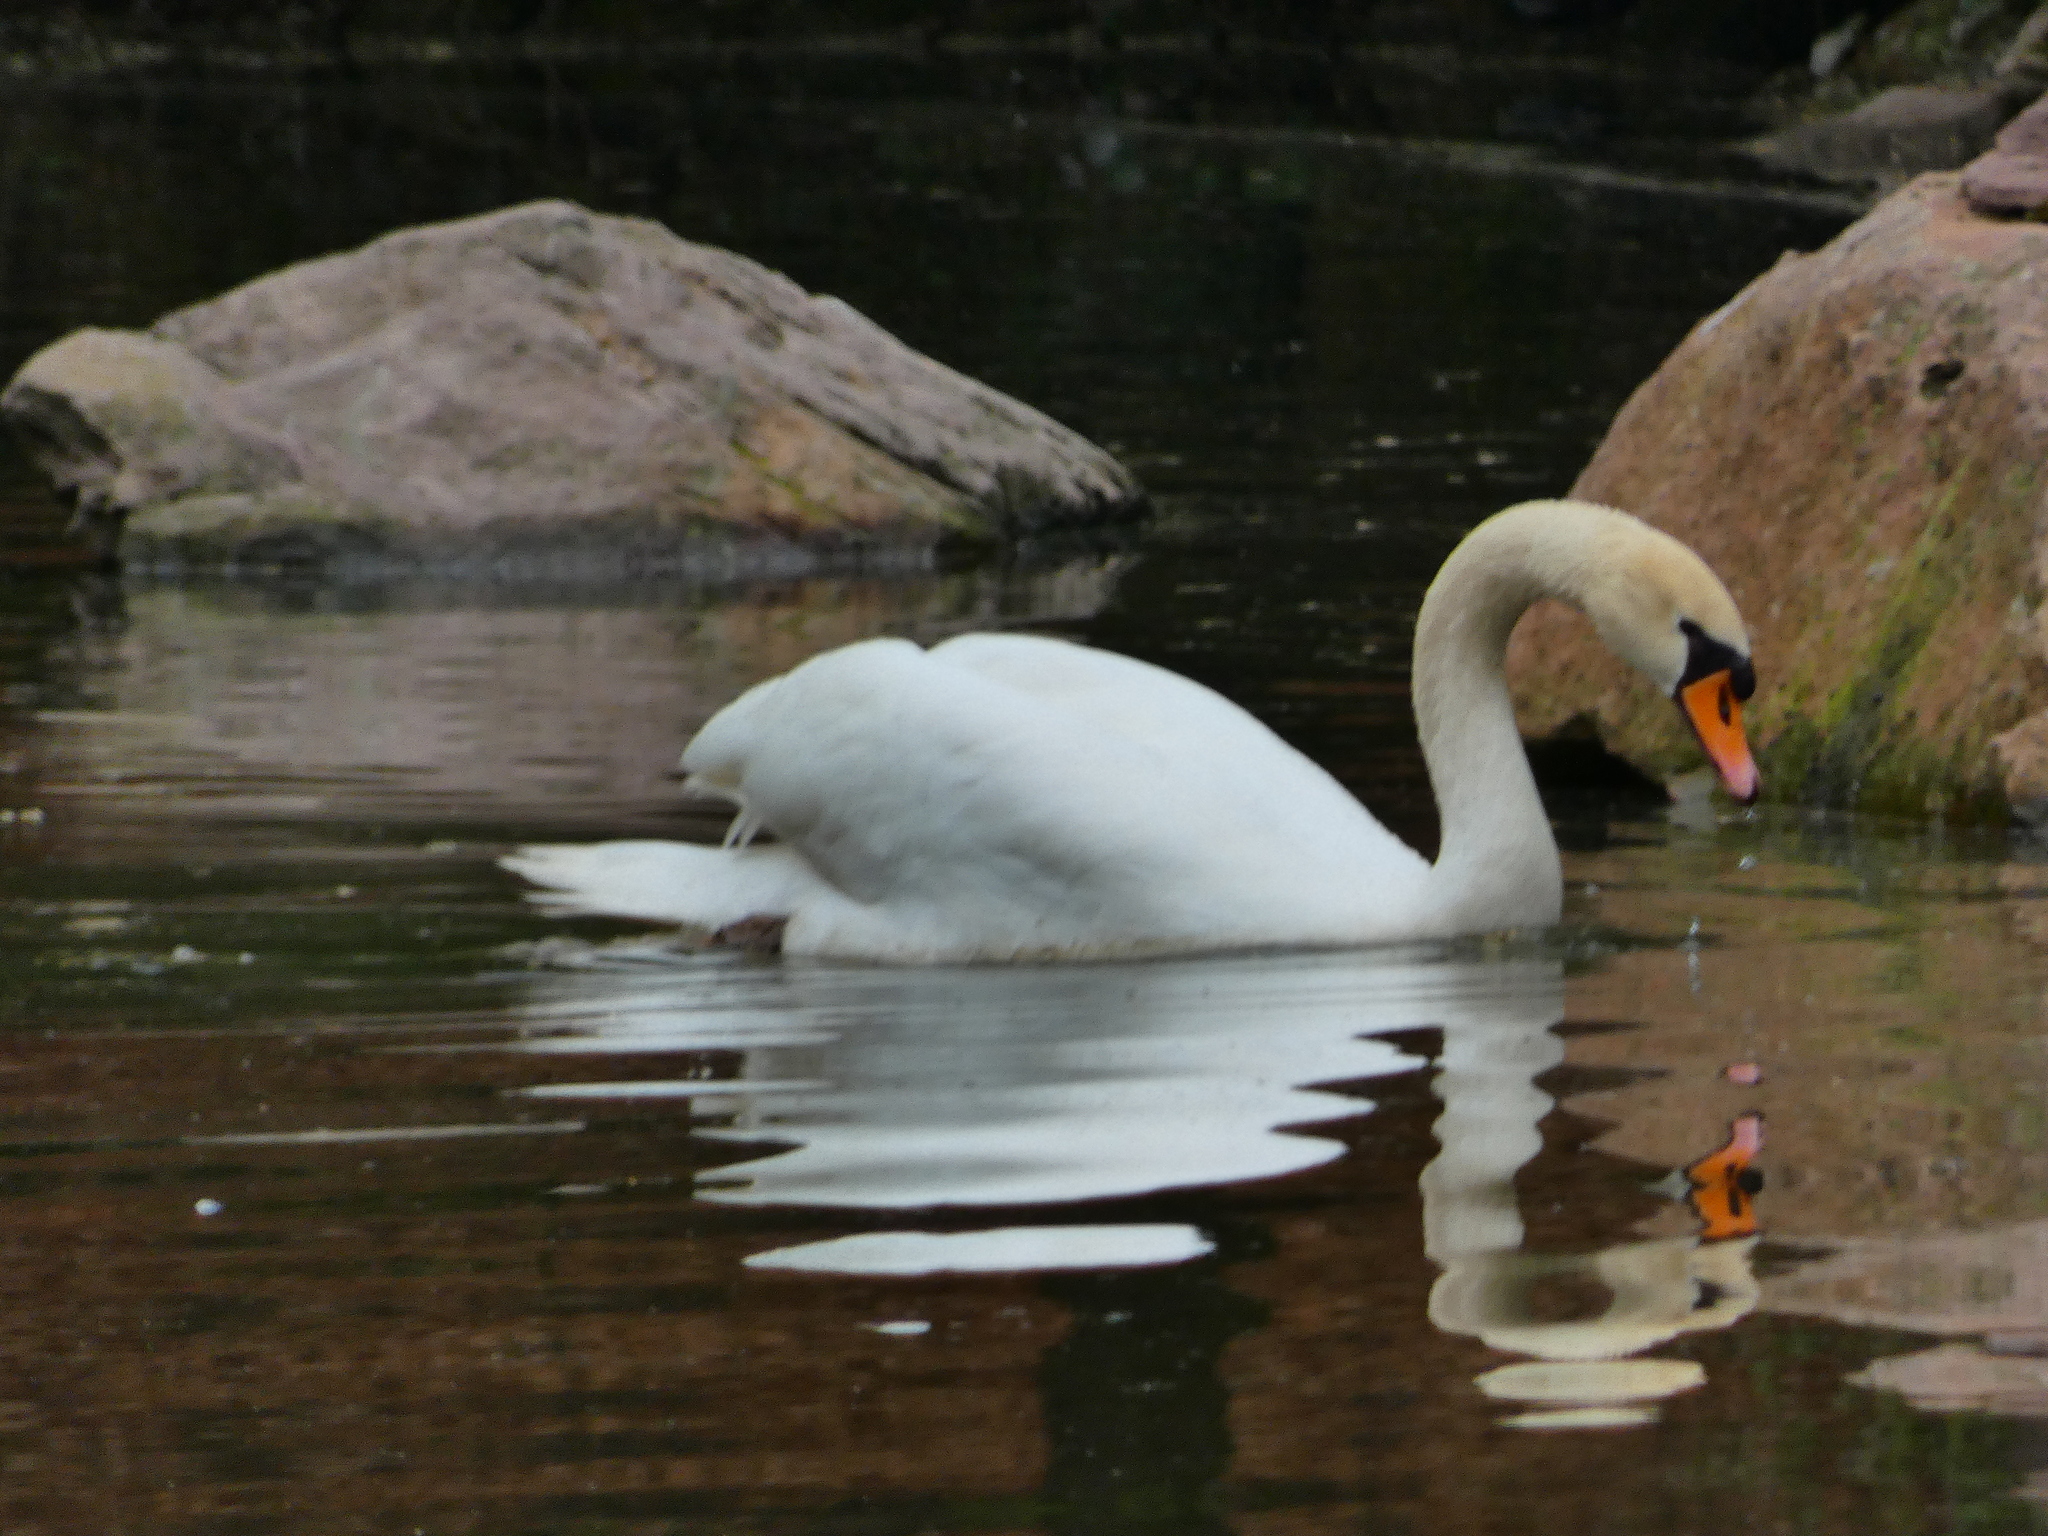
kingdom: Animalia
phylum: Chordata
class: Aves
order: Anseriformes
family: Anatidae
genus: Cygnus
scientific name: Cygnus olor
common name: Mute swan
